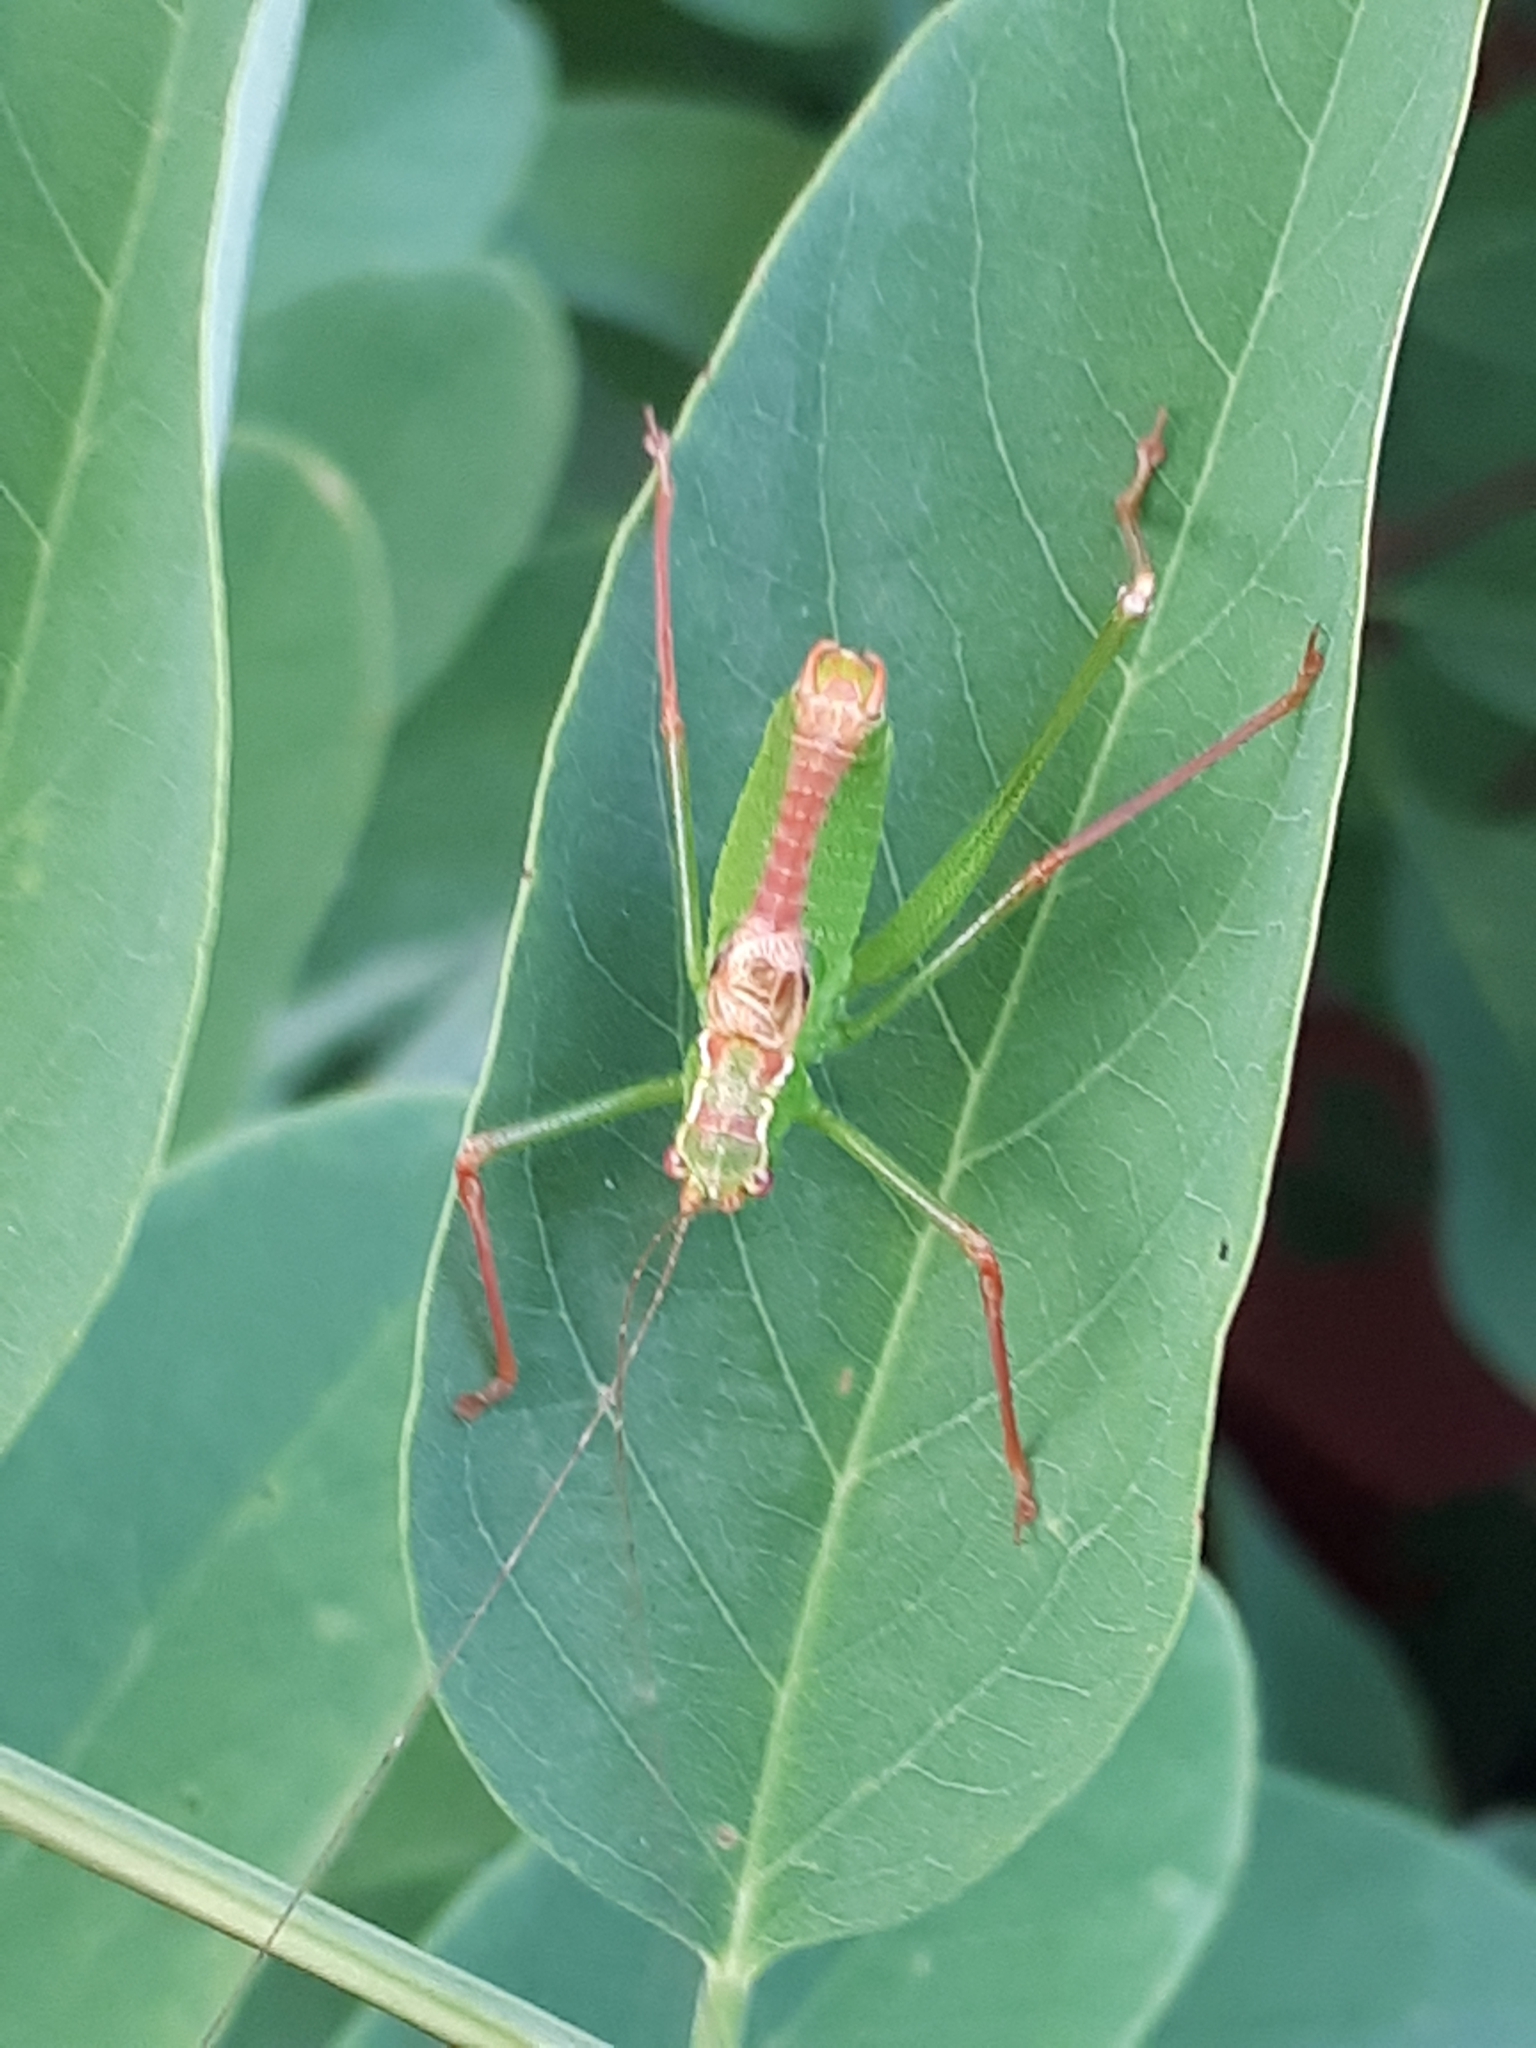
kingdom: Animalia
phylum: Arthropoda
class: Insecta
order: Orthoptera
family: Tettigoniidae
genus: Leptophyes
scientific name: Leptophyes punctatissima
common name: Speckled bush-cricket
